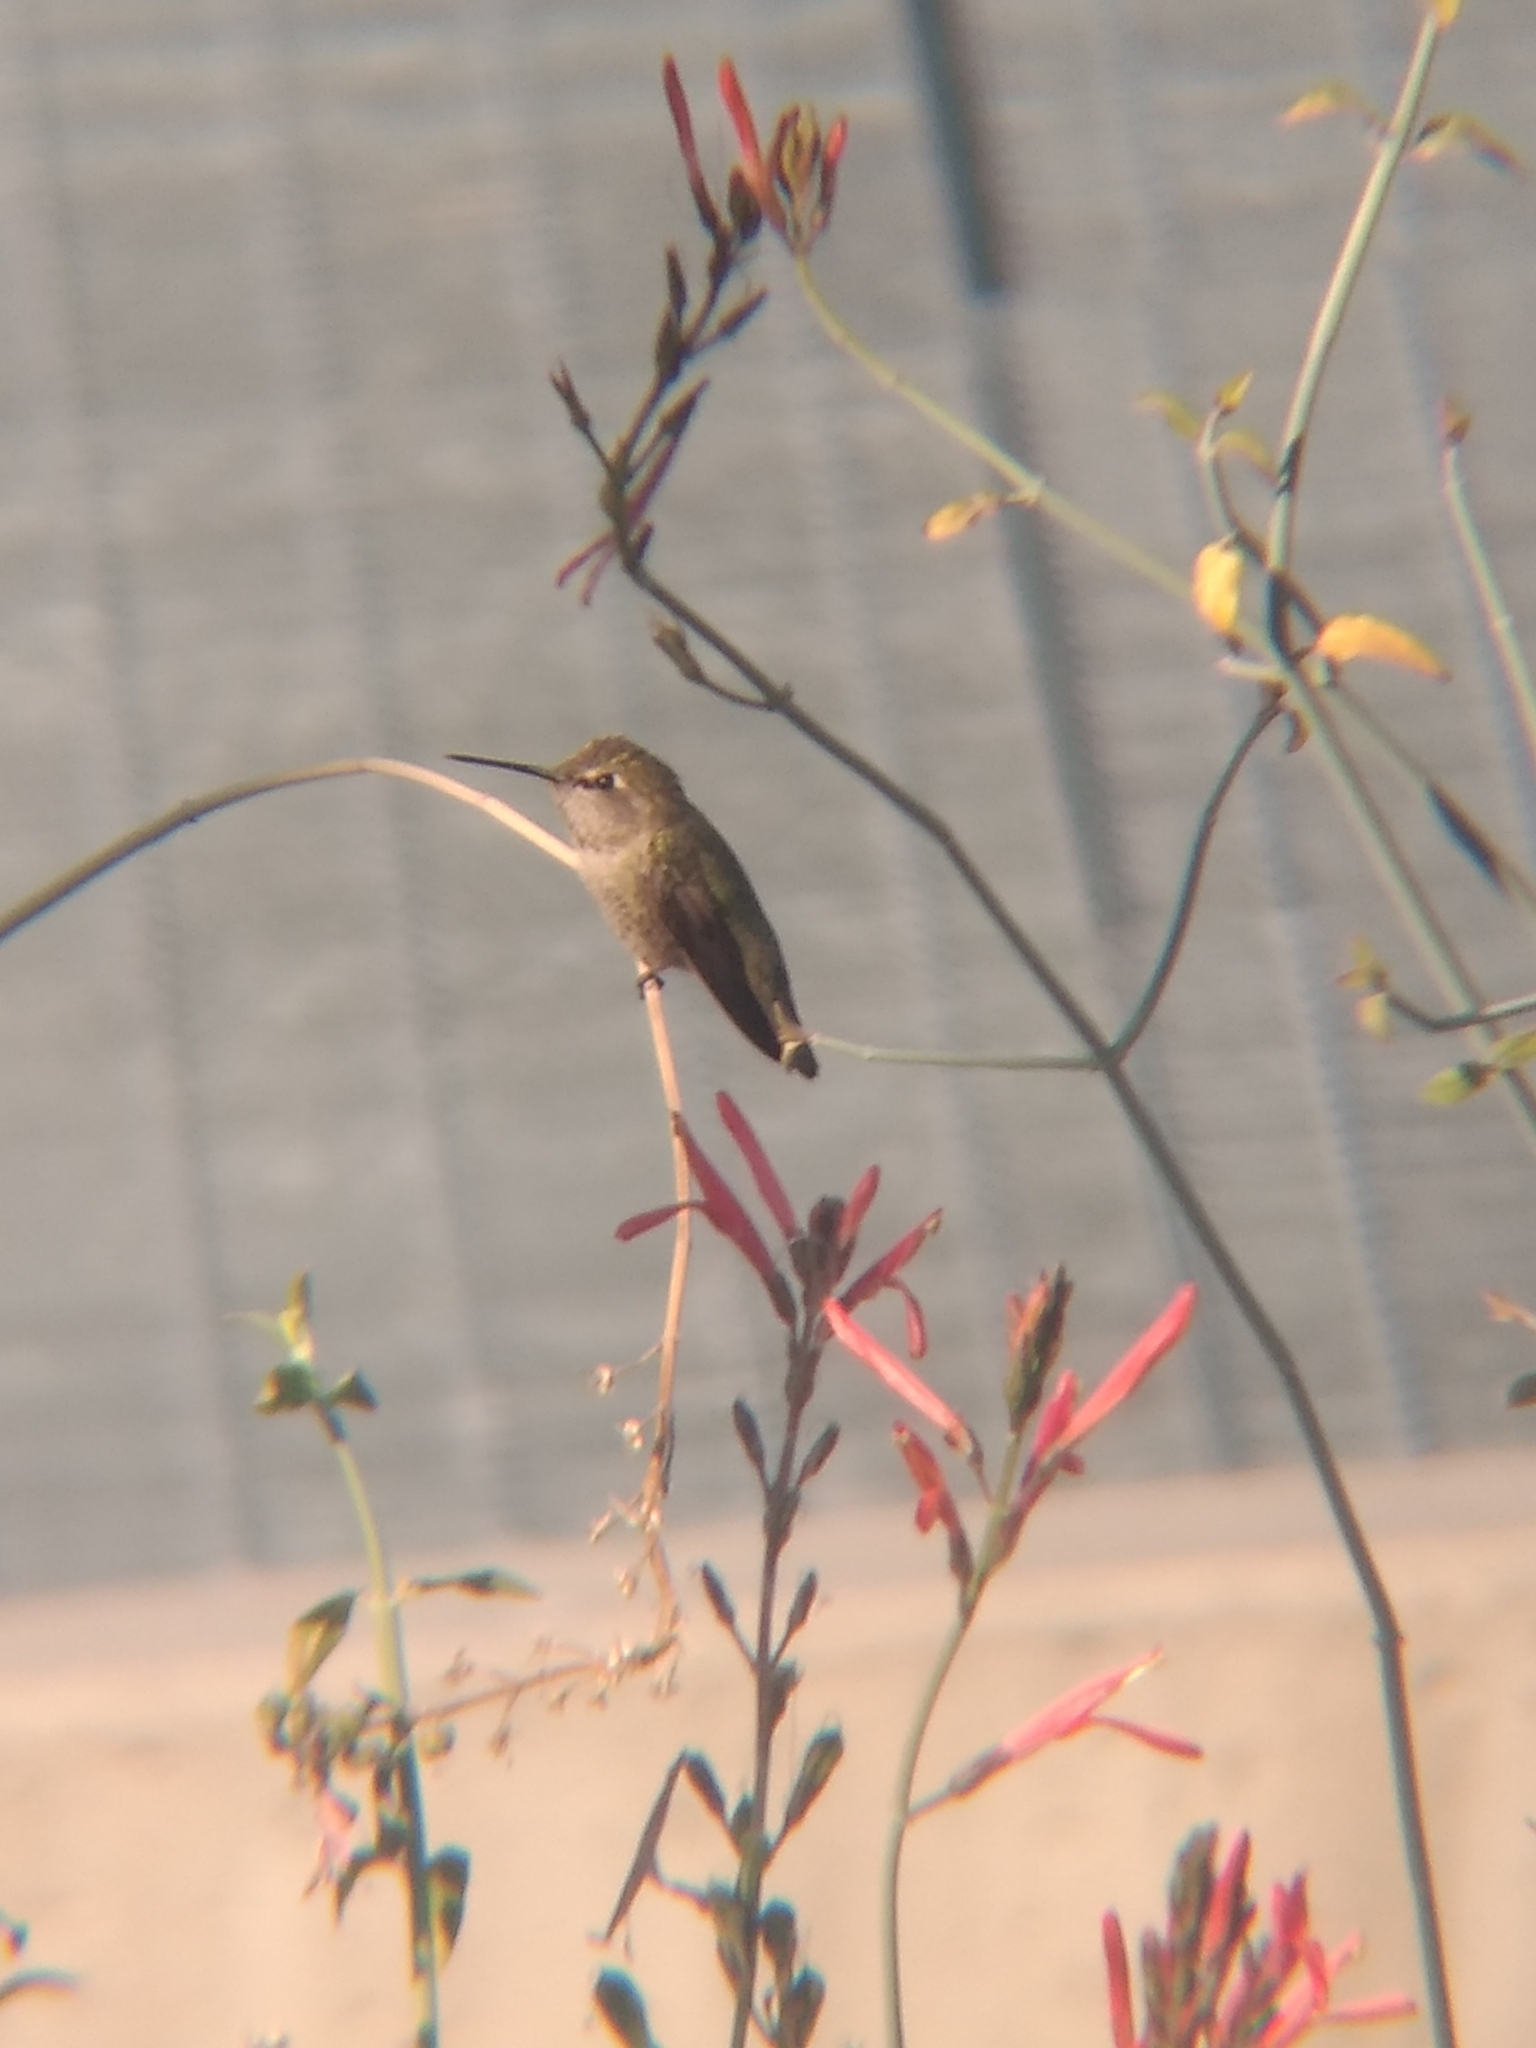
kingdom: Animalia
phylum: Chordata
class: Aves
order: Apodiformes
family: Trochilidae
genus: Calypte
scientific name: Calypte anna
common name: Anna's hummingbird
